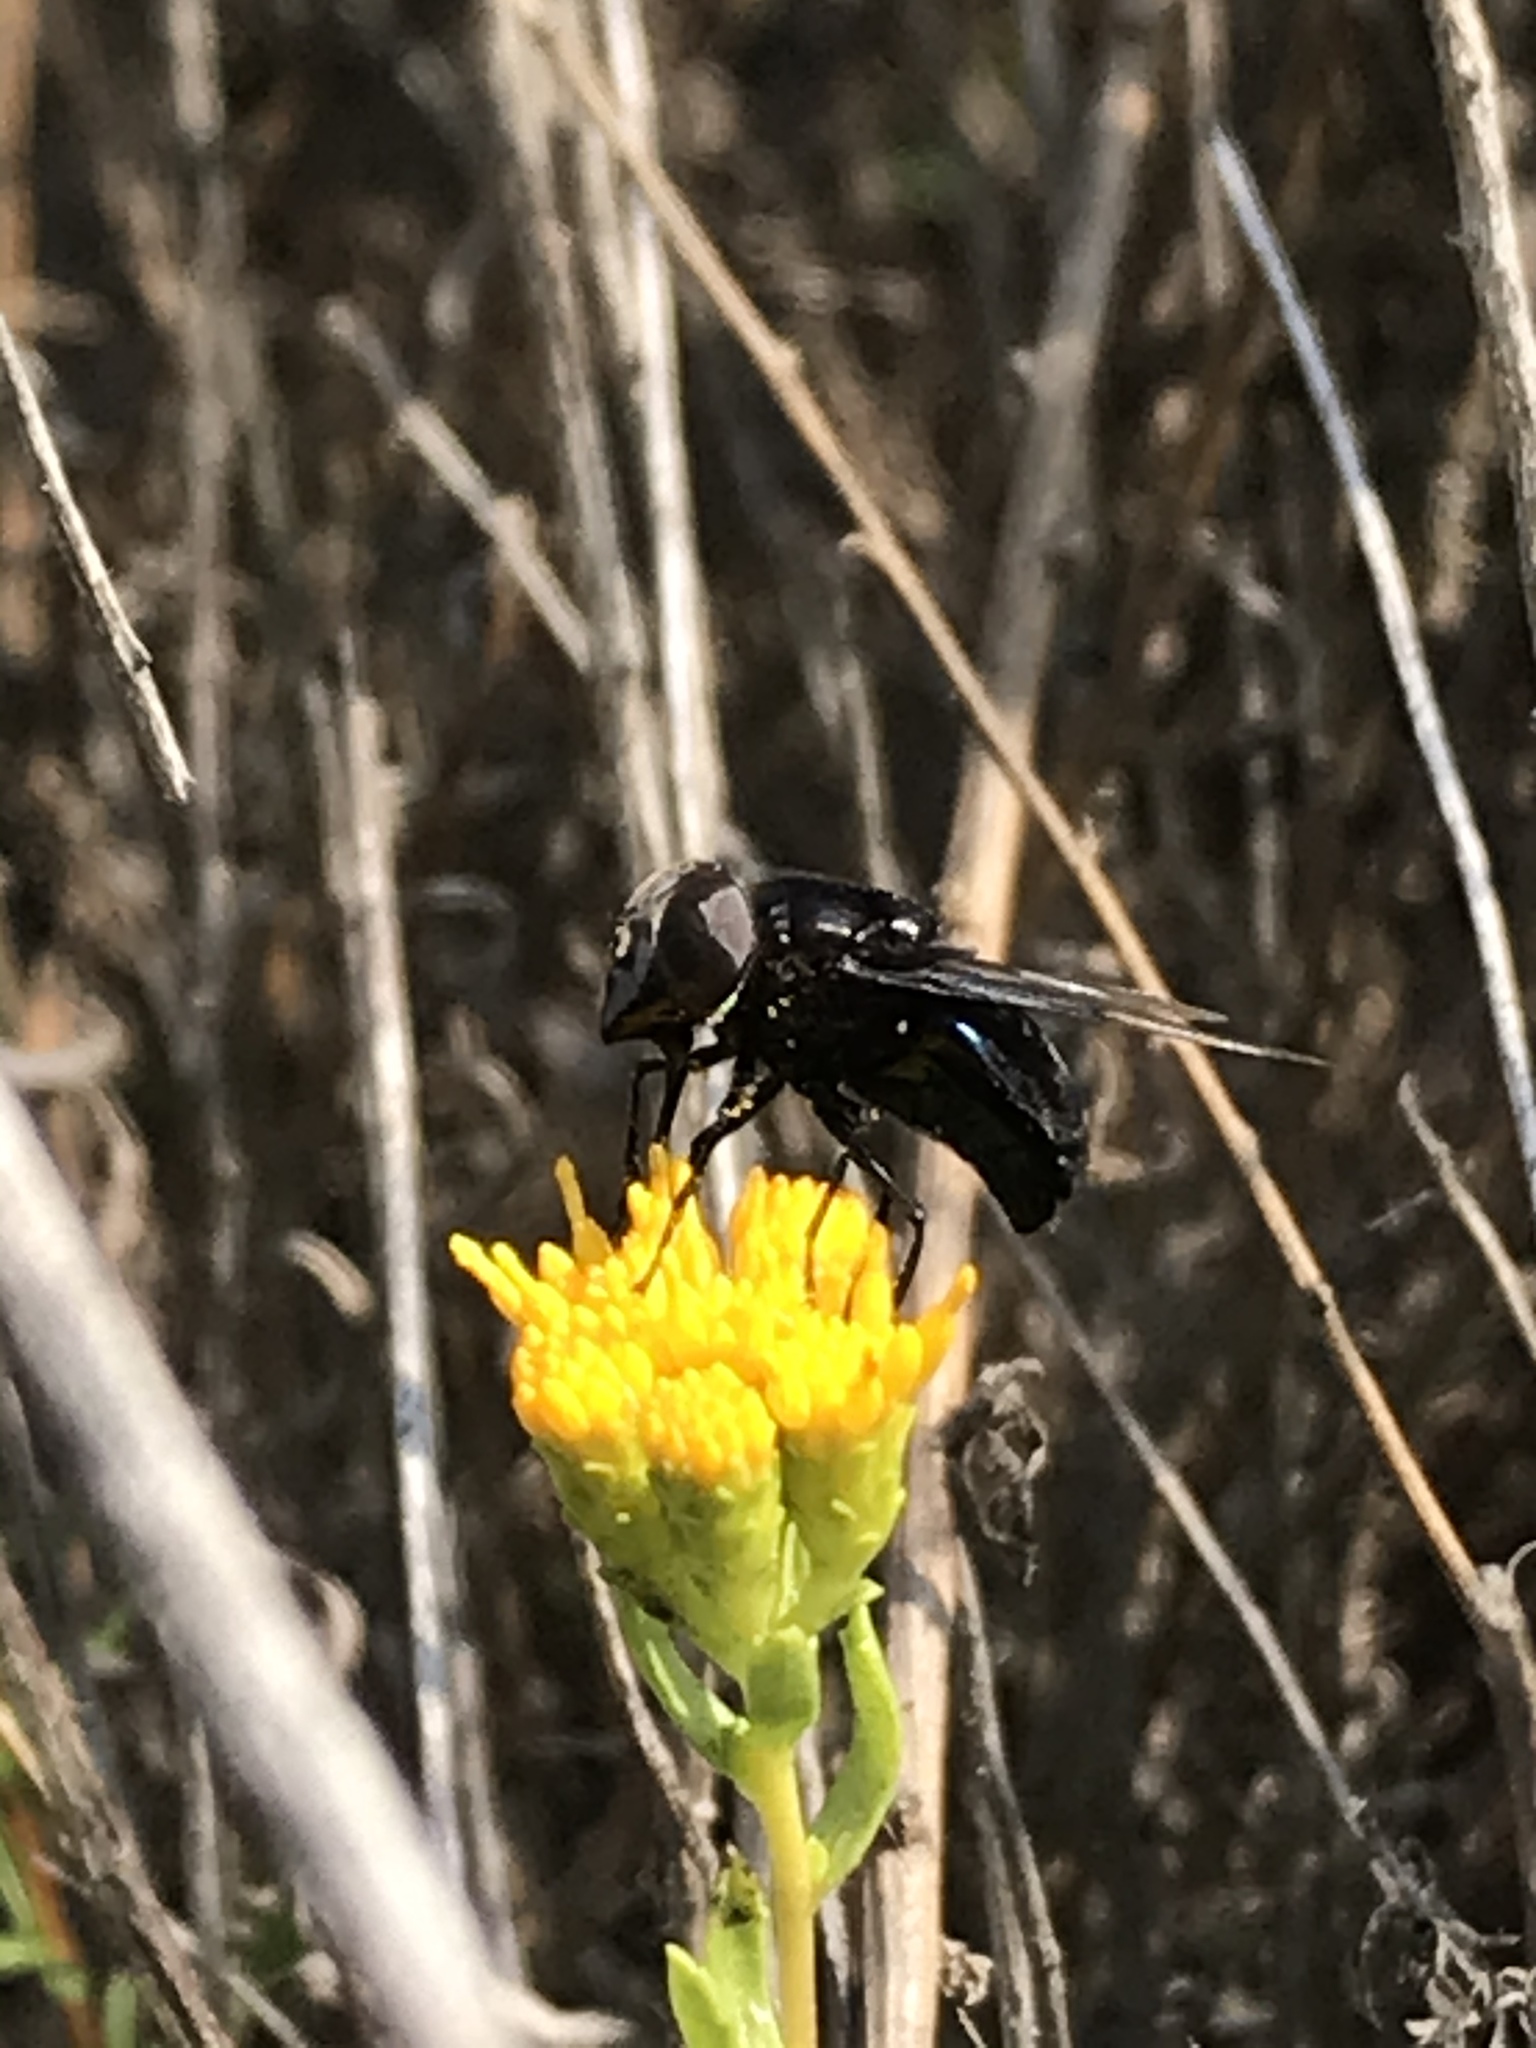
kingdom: Animalia
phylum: Arthropoda
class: Insecta
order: Diptera
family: Syrphidae
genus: Copestylum
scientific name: Copestylum
